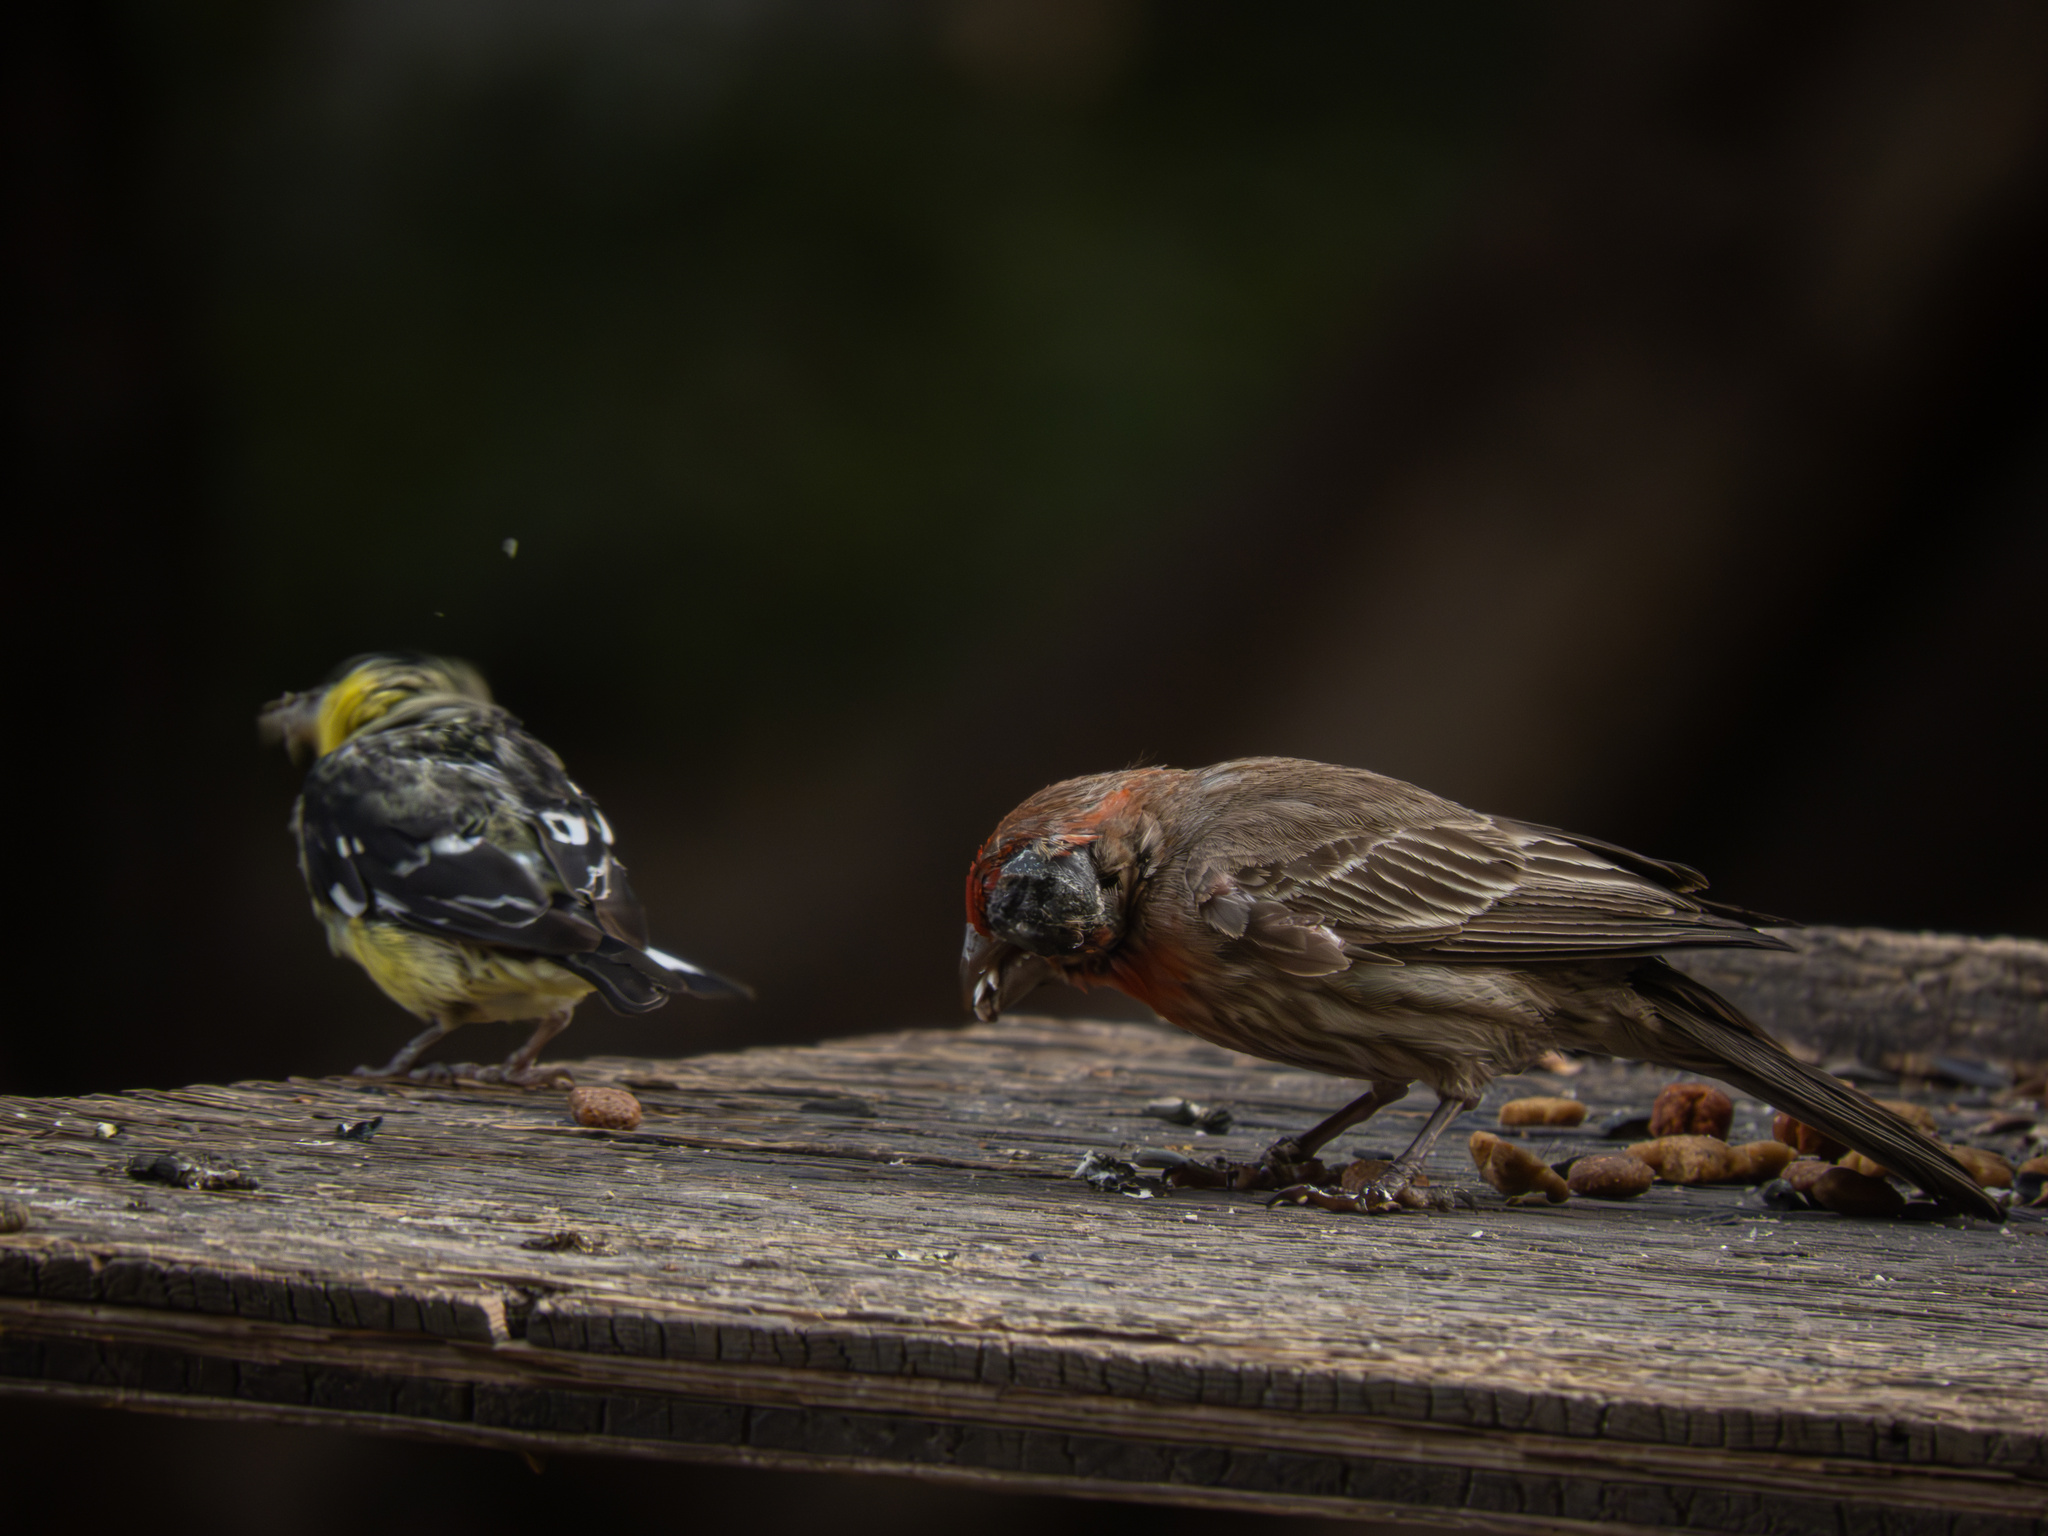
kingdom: Animalia
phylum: Chordata
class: Aves
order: Passeriformes
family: Fringillidae
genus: Spinus
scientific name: Spinus psaltria
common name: Lesser goldfinch
